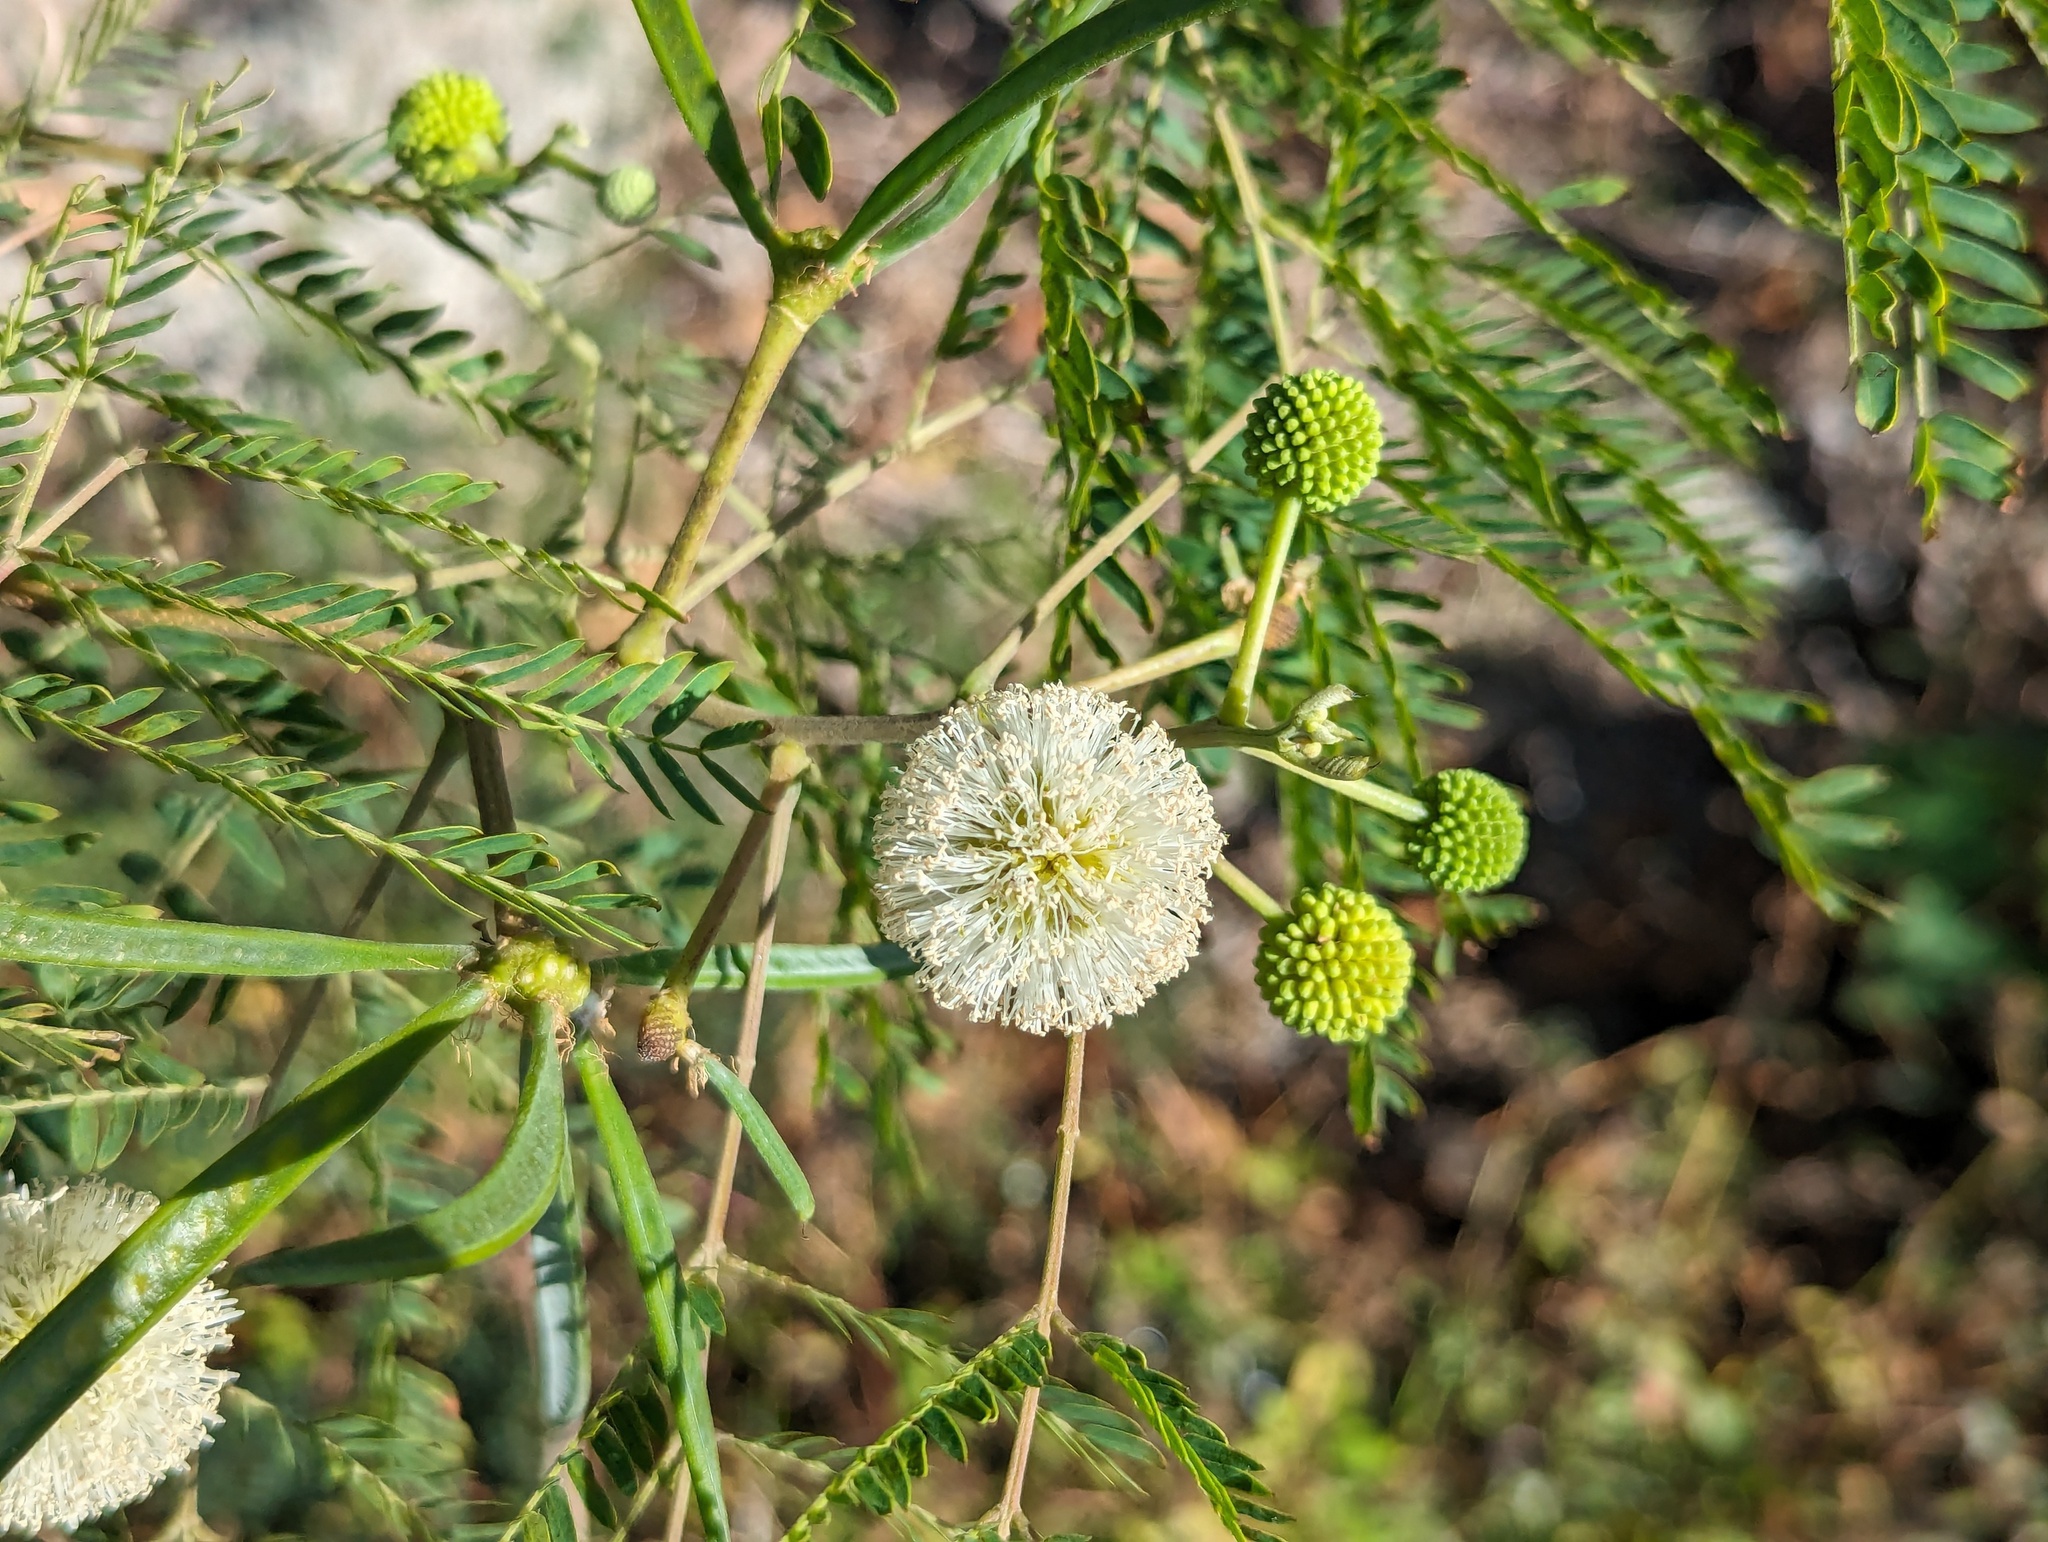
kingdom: Plantae
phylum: Tracheophyta
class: Magnoliopsida
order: Fabales
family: Fabaceae
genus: Leucaena
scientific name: Leucaena leucocephala
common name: White leadtree
